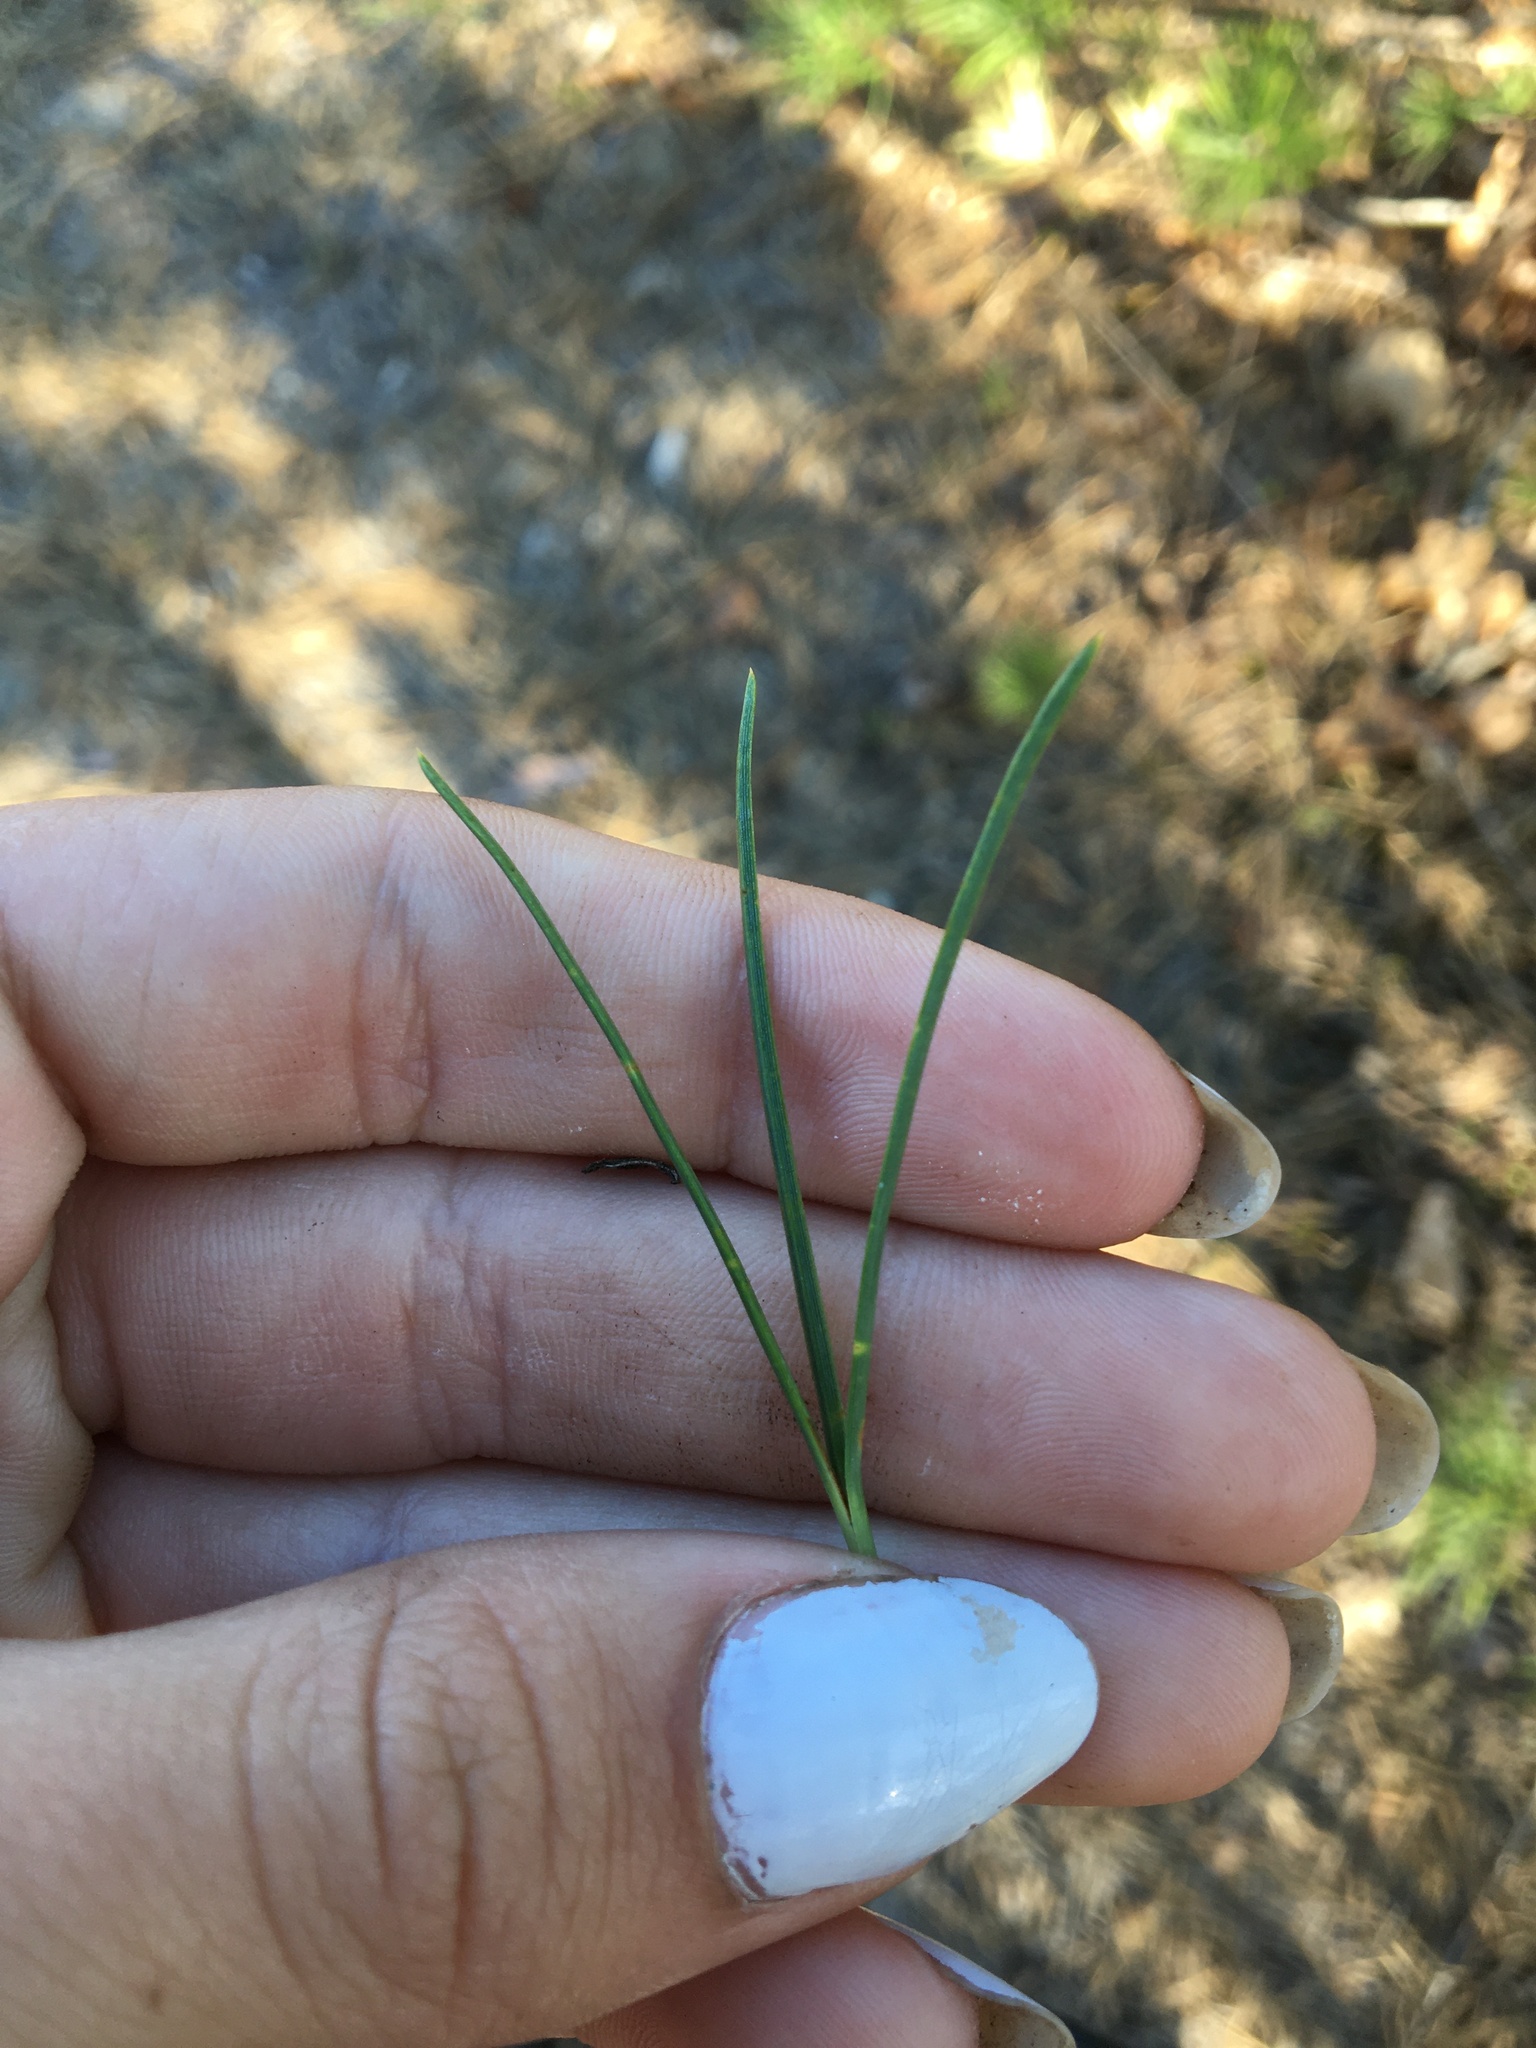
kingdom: Plantae
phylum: Tracheophyta
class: Pinopsida
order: Pinales
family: Pinaceae
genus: Pinus
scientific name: Pinus rigida
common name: Pitch pine
